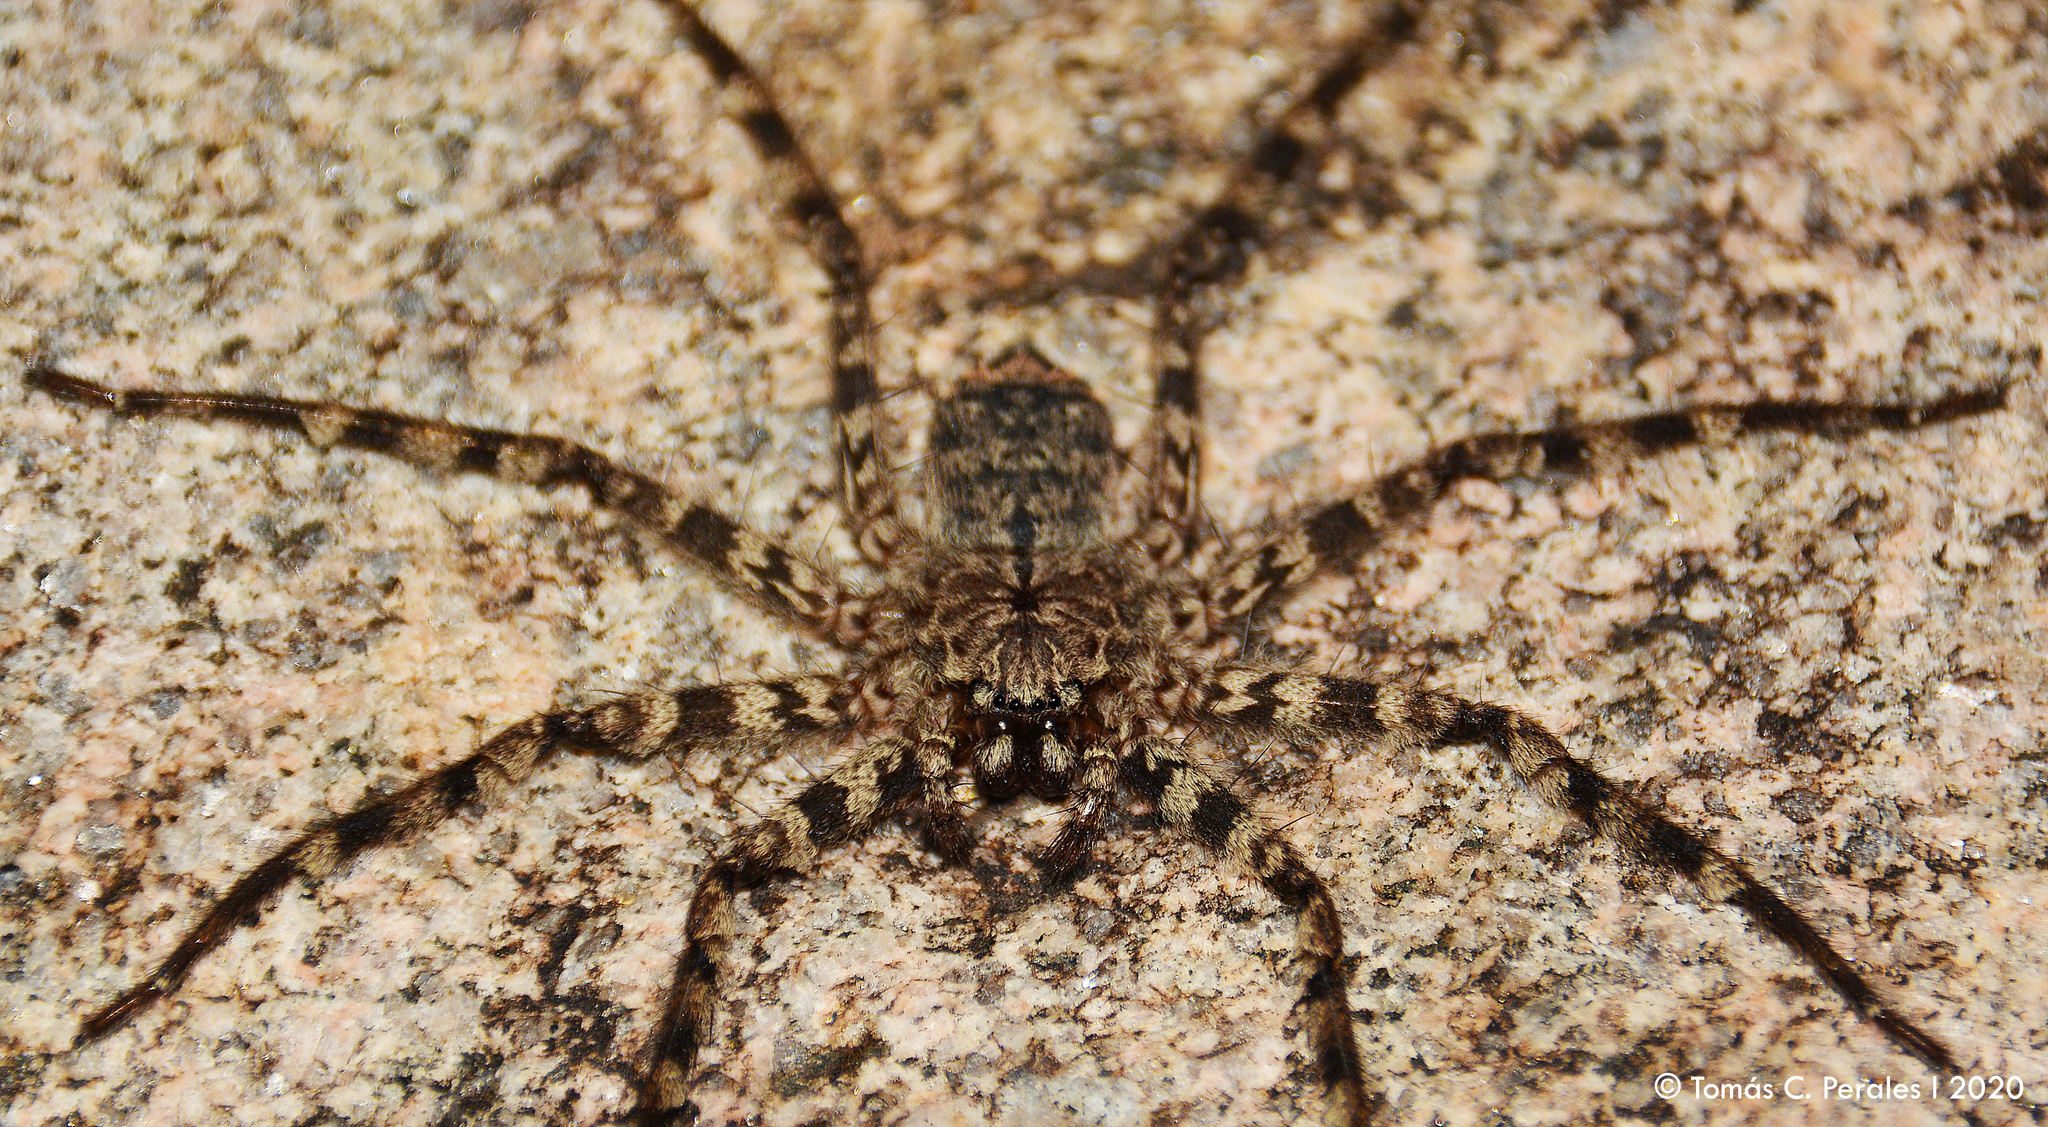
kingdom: Animalia
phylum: Arthropoda
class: Arachnida
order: Araneae
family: Selenopidae
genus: Selenops
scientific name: Selenops
